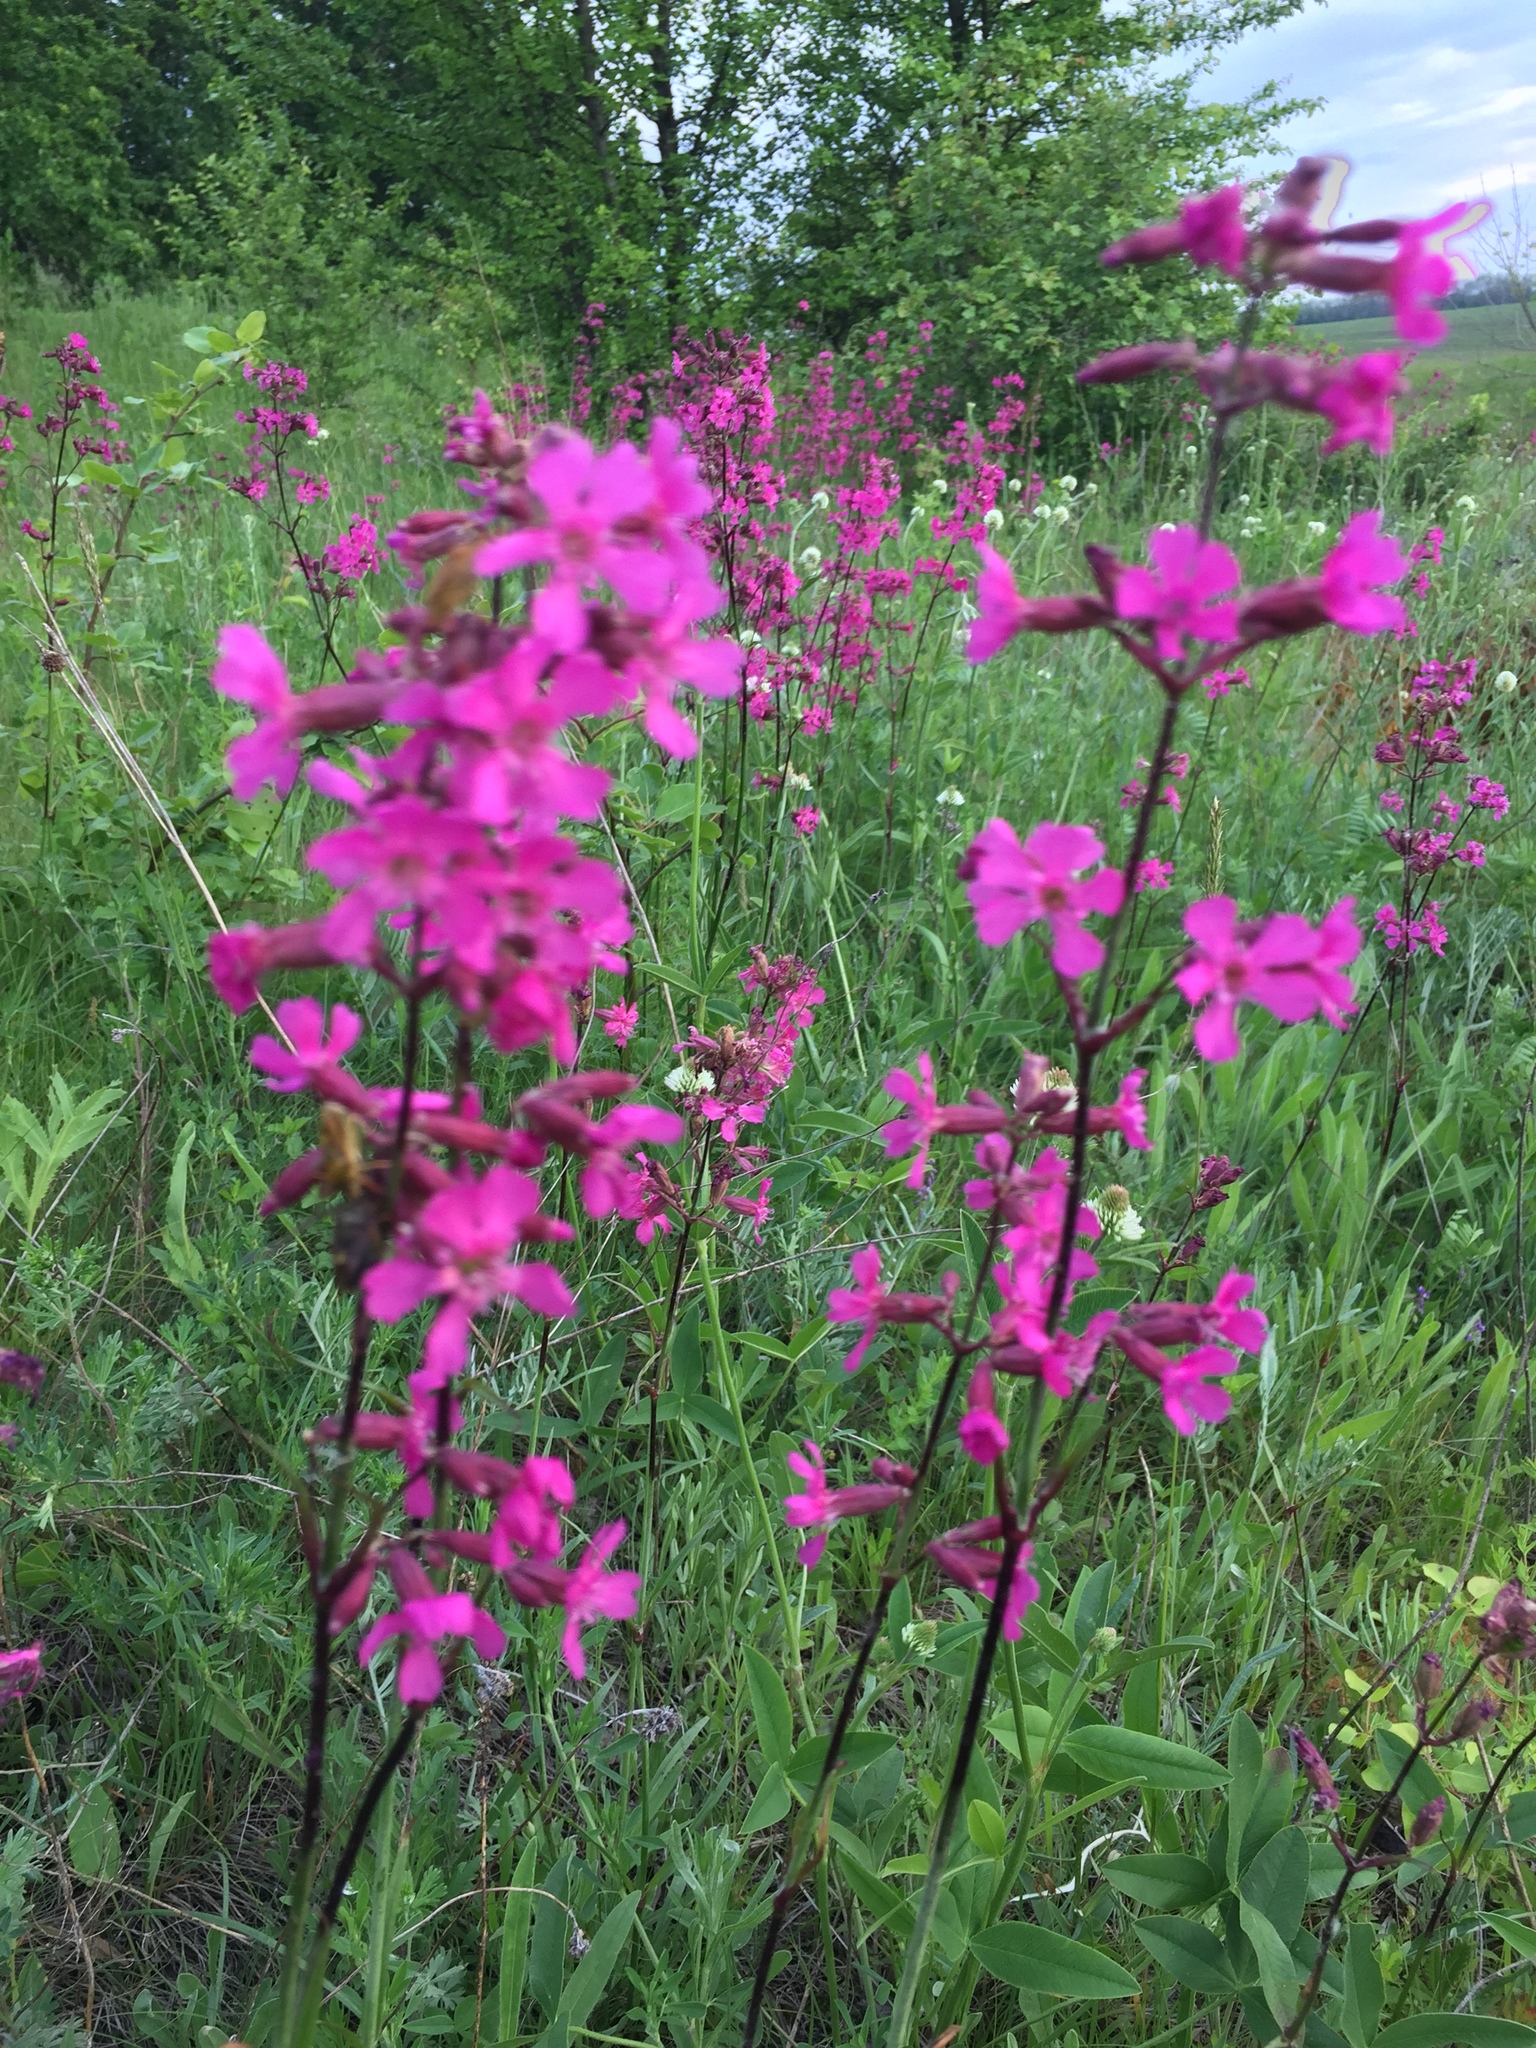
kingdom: Plantae
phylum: Tracheophyta
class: Magnoliopsida
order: Caryophyllales
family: Caryophyllaceae
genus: Viscaria
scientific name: Viscaria vulgaris
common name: Clammy campion
